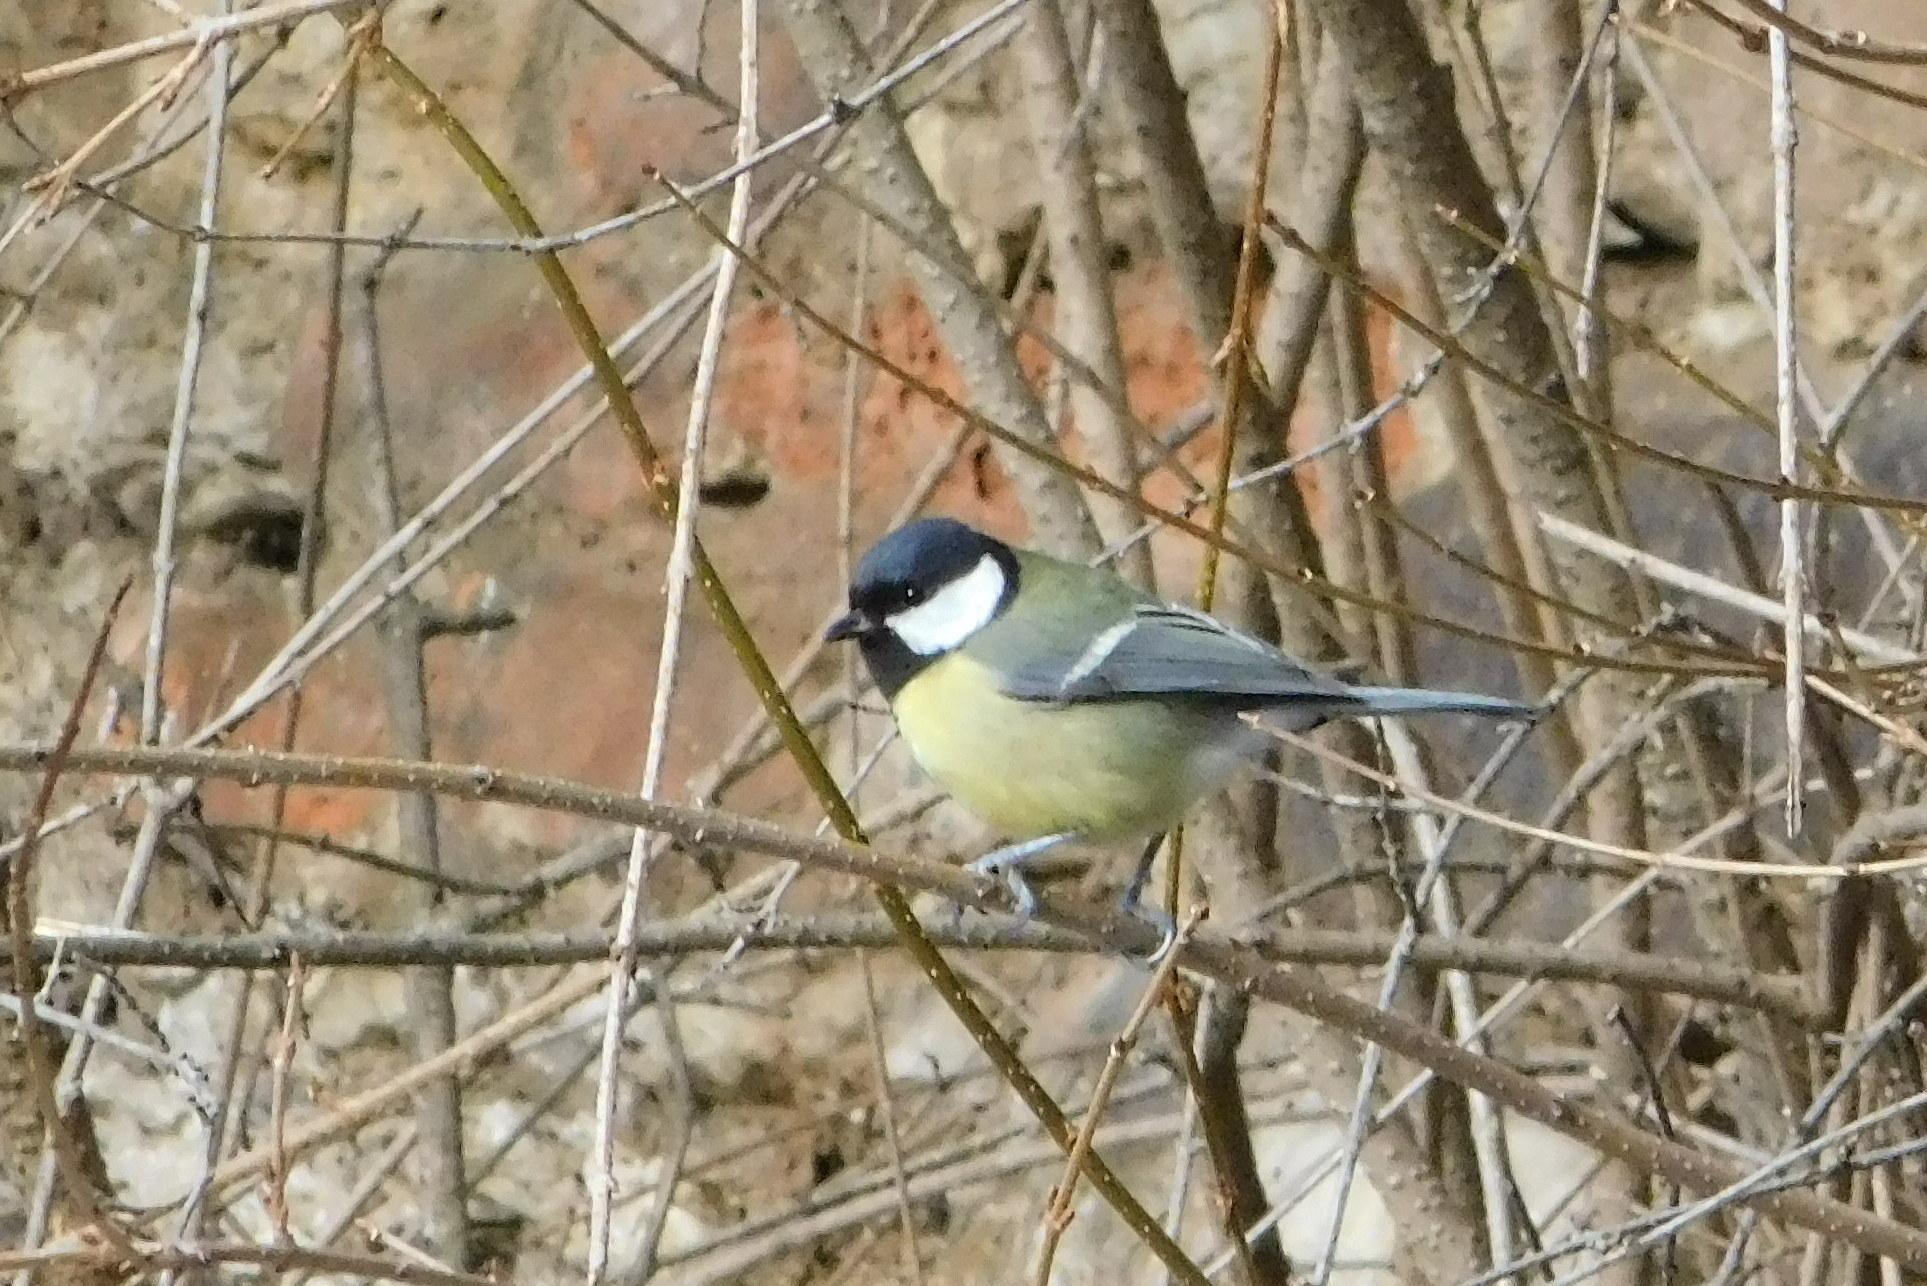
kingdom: Animalia
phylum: Chordata
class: Aves
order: Passeriformes
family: Paridae
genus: Parus
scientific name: Parus major
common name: Great tit
